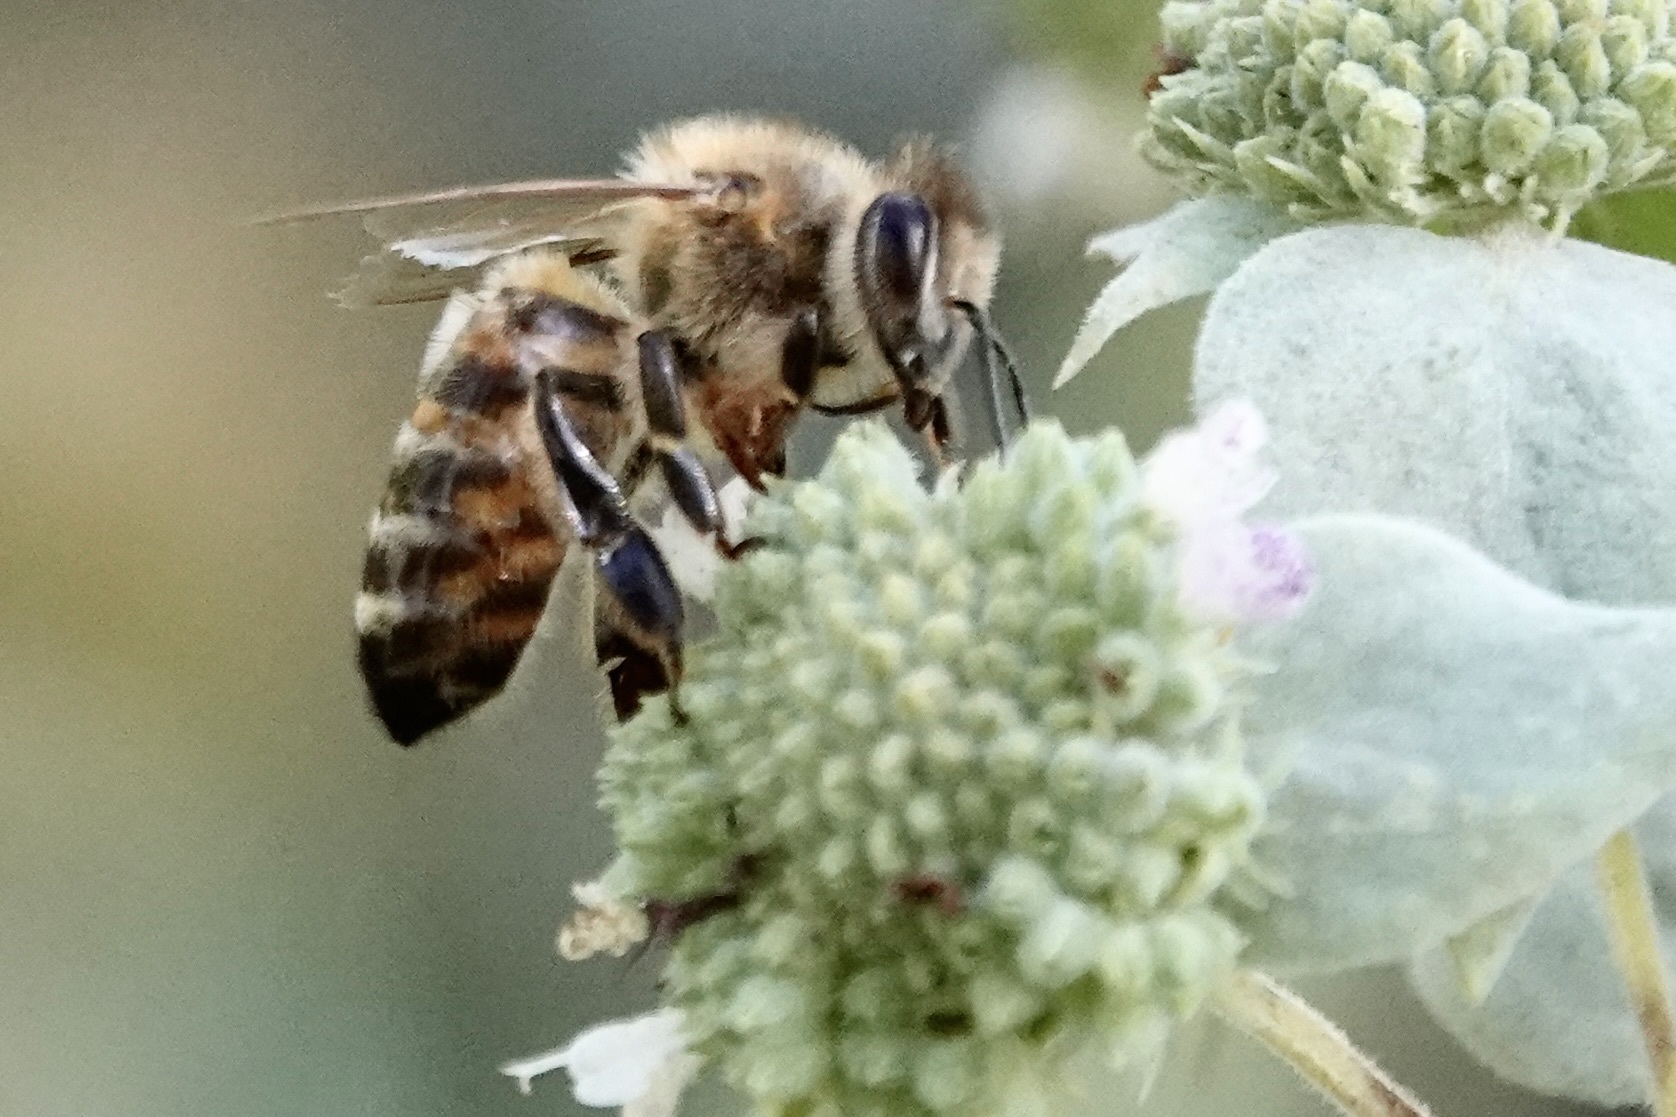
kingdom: Animalia
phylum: Arthropoda
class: Insecta
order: Hymenoptera
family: Apidae
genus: Apis
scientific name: Apis mellifera
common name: Honey bee
